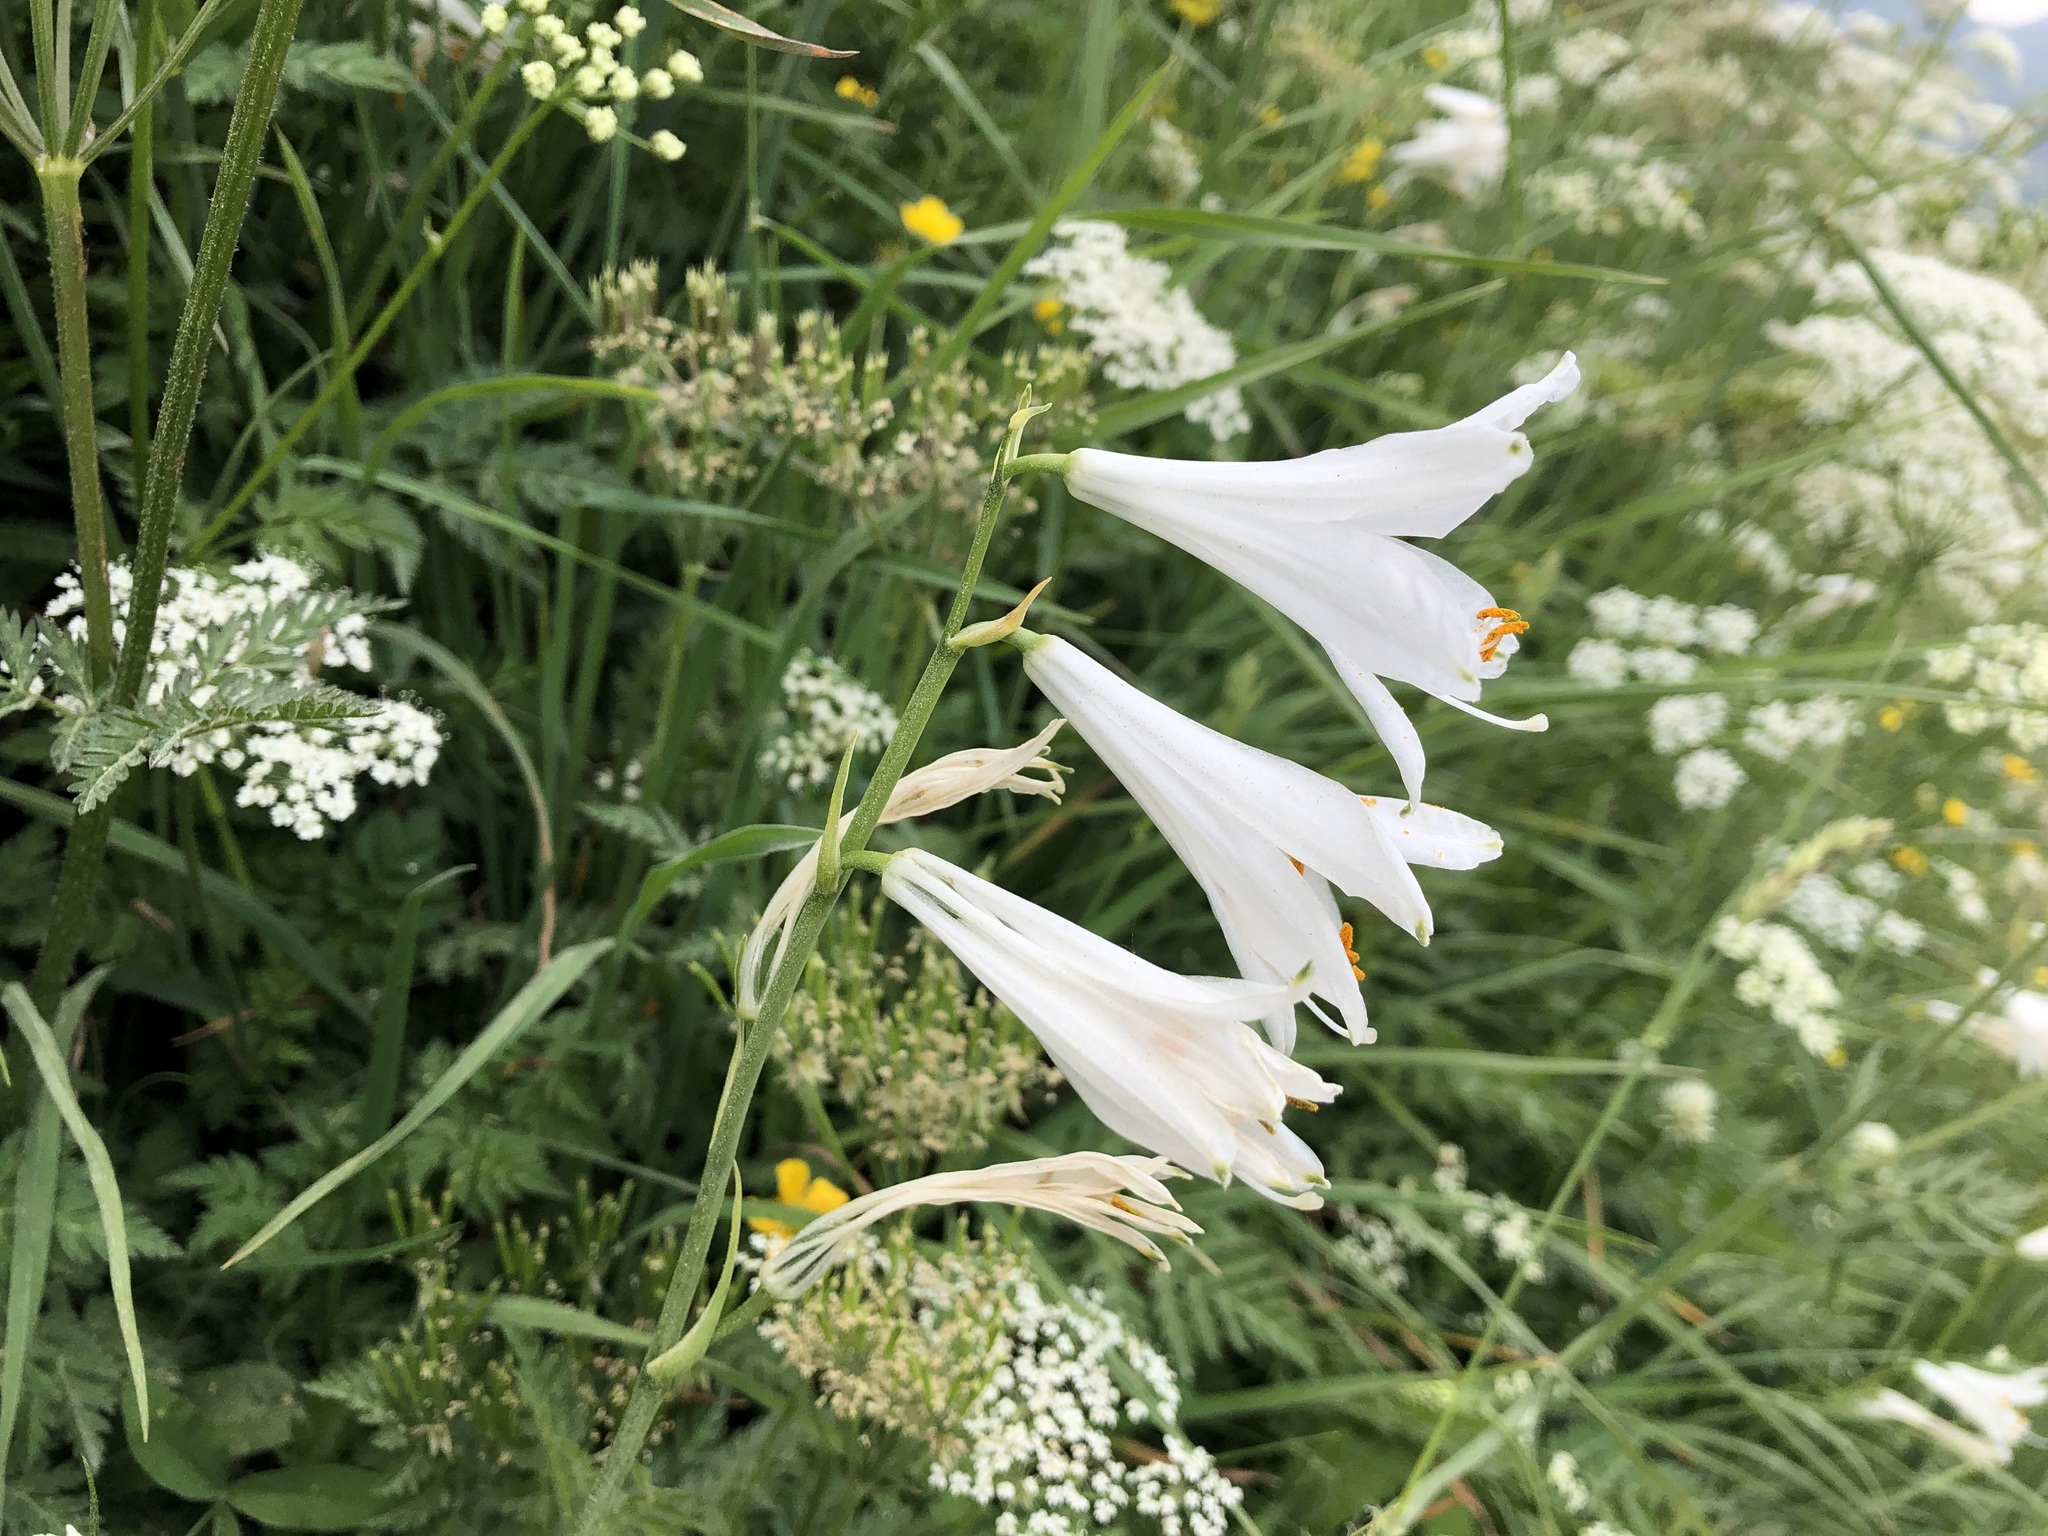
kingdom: Plantae
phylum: Tracheophyta
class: Liliopsida
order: Asparagales
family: Asparagaceae
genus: Paradisea
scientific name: Paradisea liliastrum
